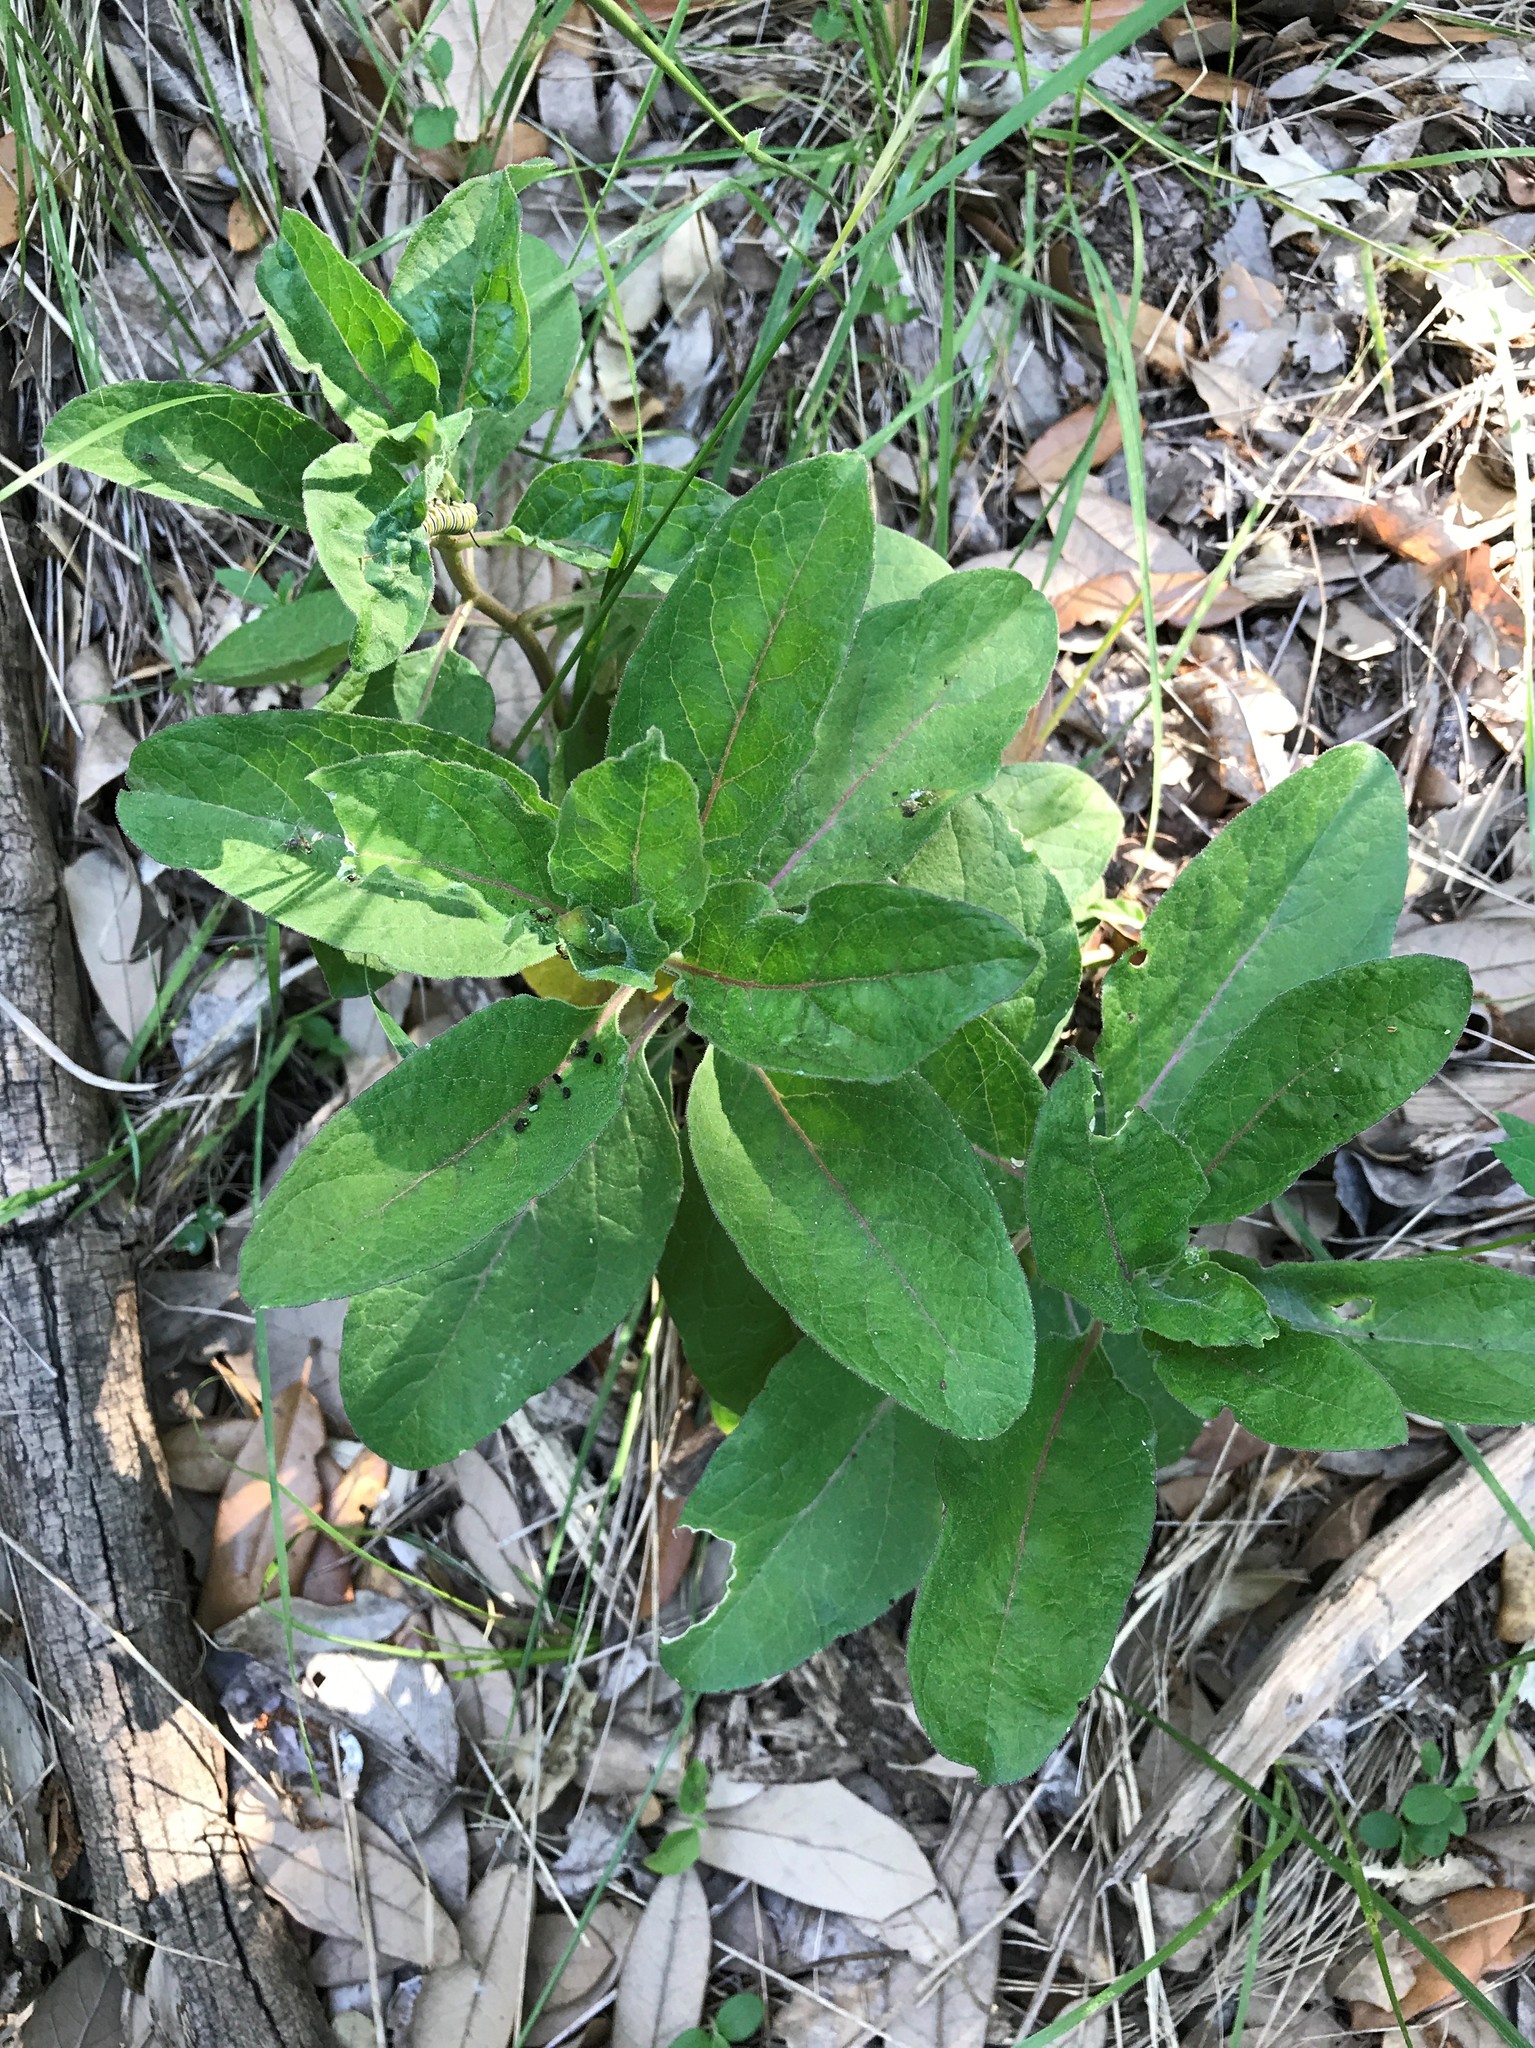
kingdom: Plantae
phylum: Tracheophyta
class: Magnoliopsida
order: Gentianales
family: Apocynaceae
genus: Asclepias
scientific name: Asclepias oenotheroides
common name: Zizotes milkweed
